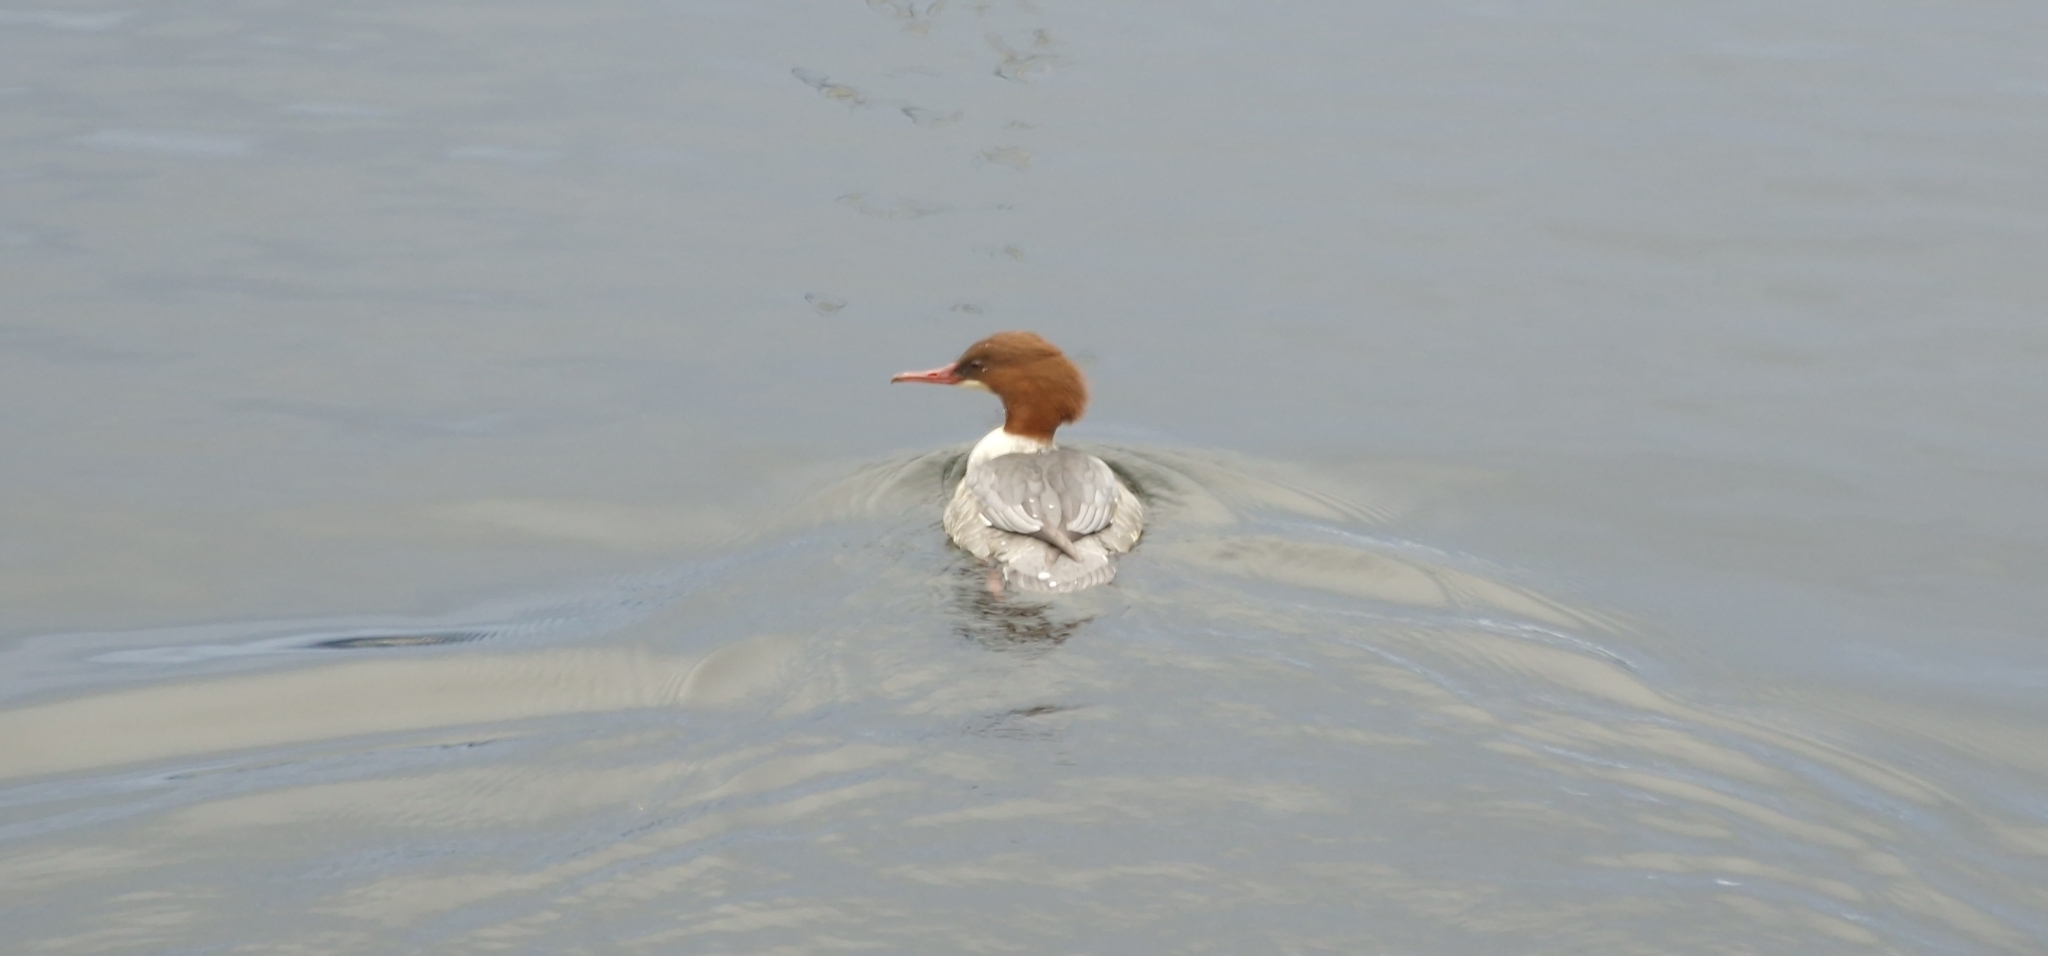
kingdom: Animalia
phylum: Chordata
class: Aves
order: Anseriformes
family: Anatidae
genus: Mergus
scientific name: Mergus merganser
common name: Common merganser
